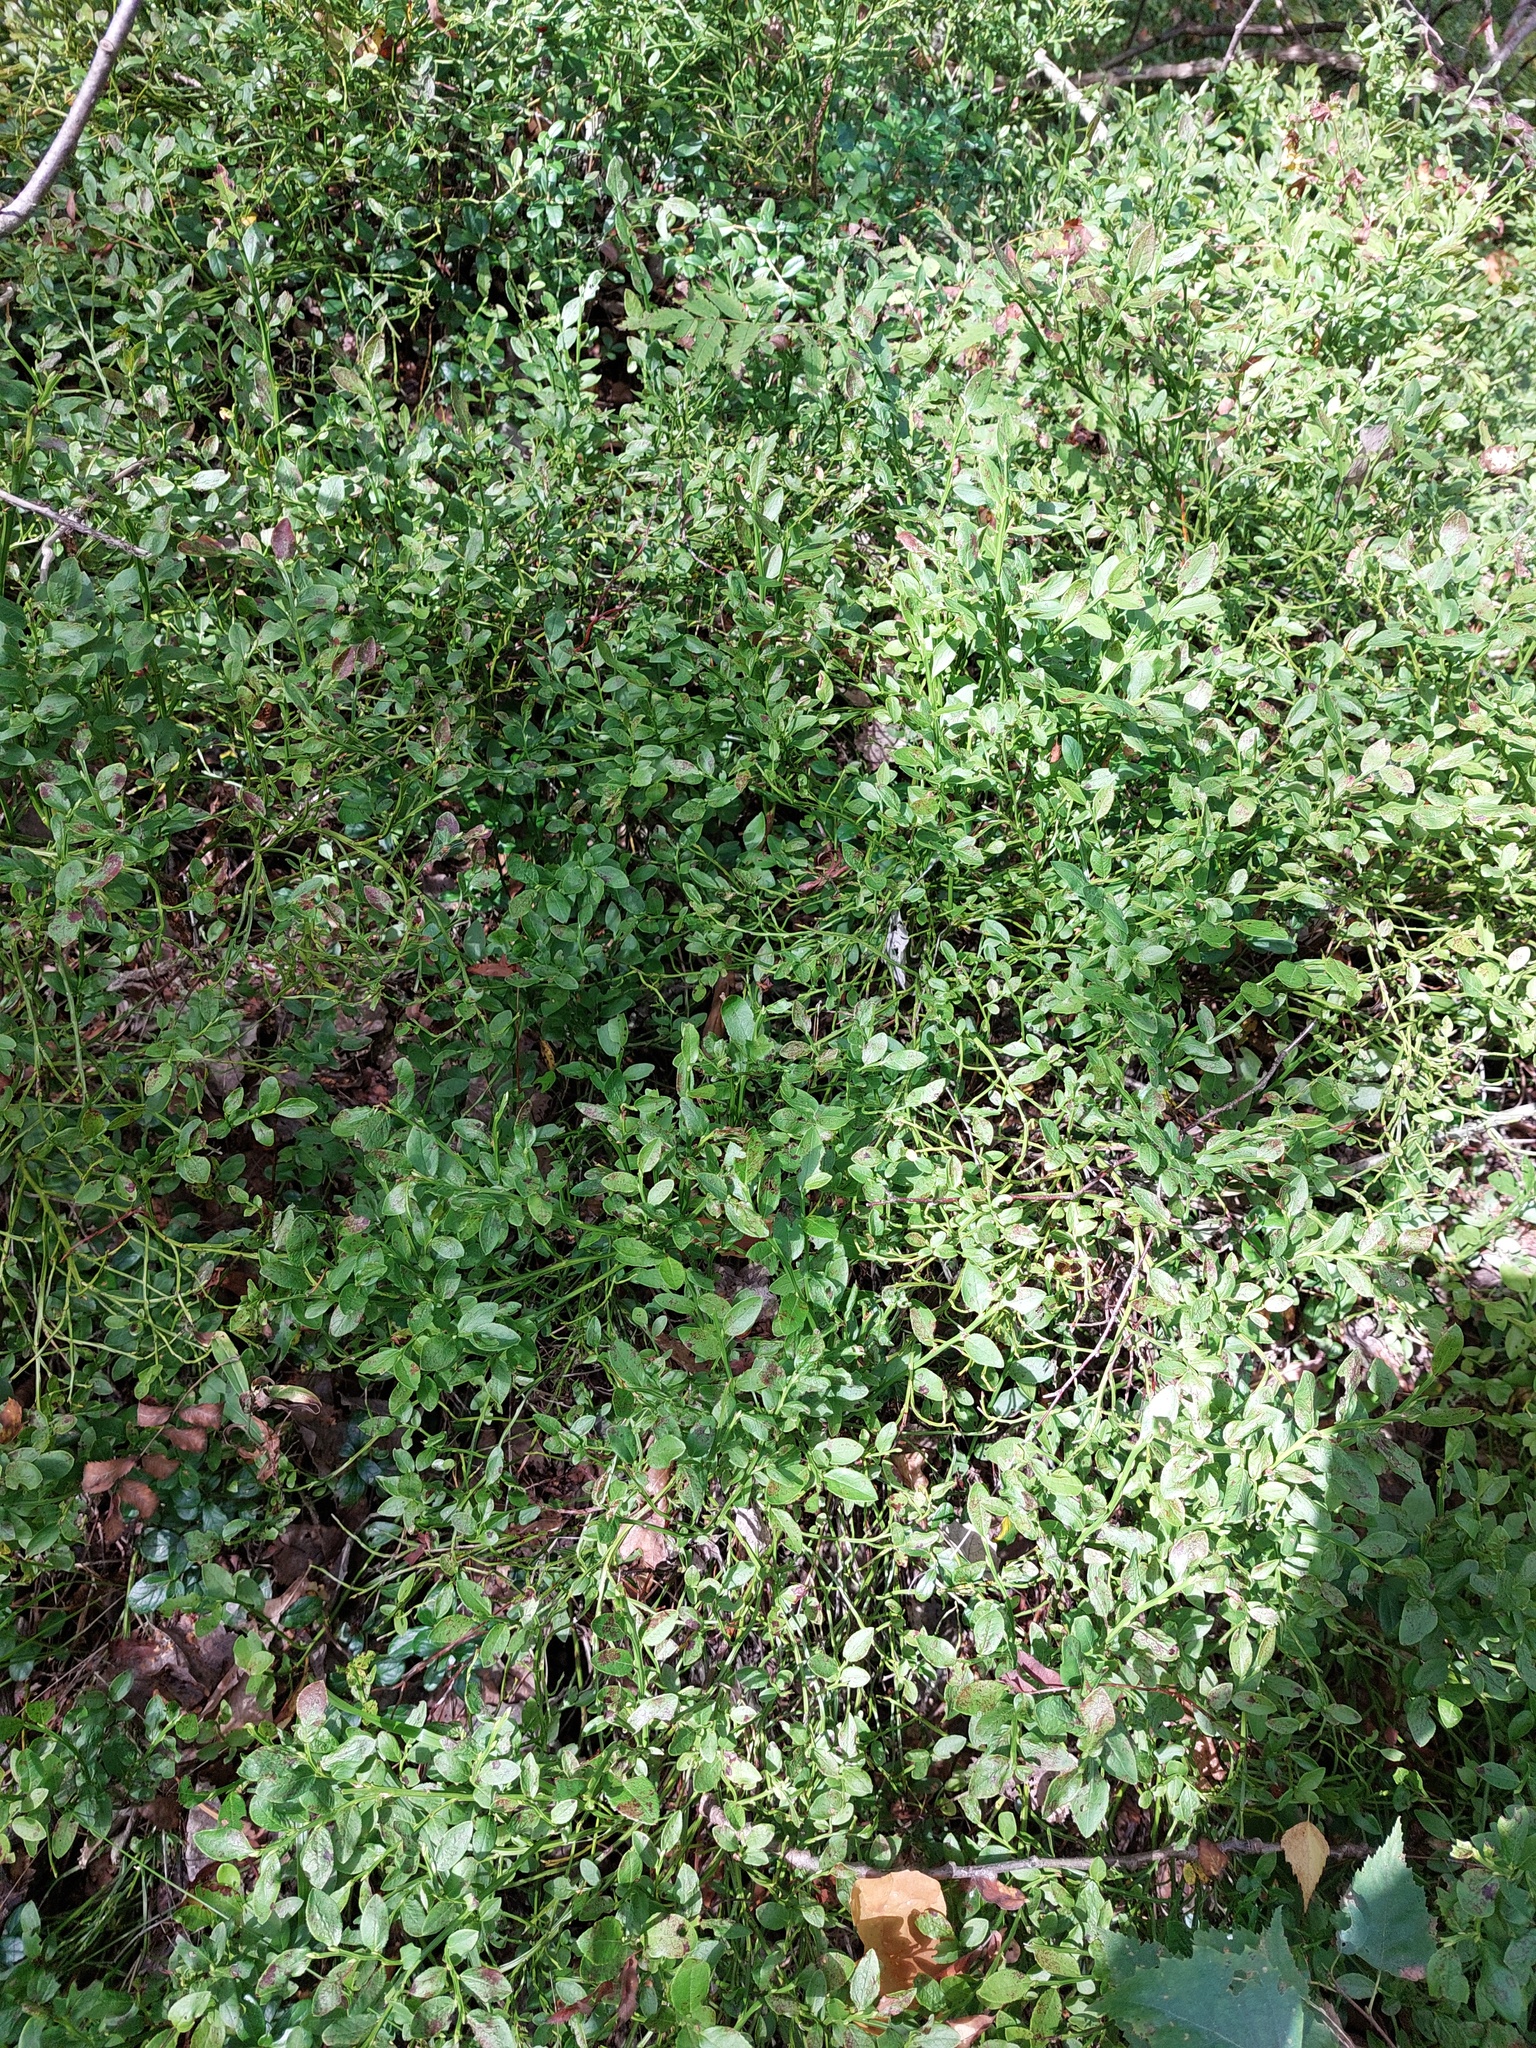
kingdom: Plantae
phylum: Tracheophyta
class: Magnoliopsida
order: Ericales
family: Ericaceae
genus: Vaccinium
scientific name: Vaccinium myrtillus
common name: Bilberry
